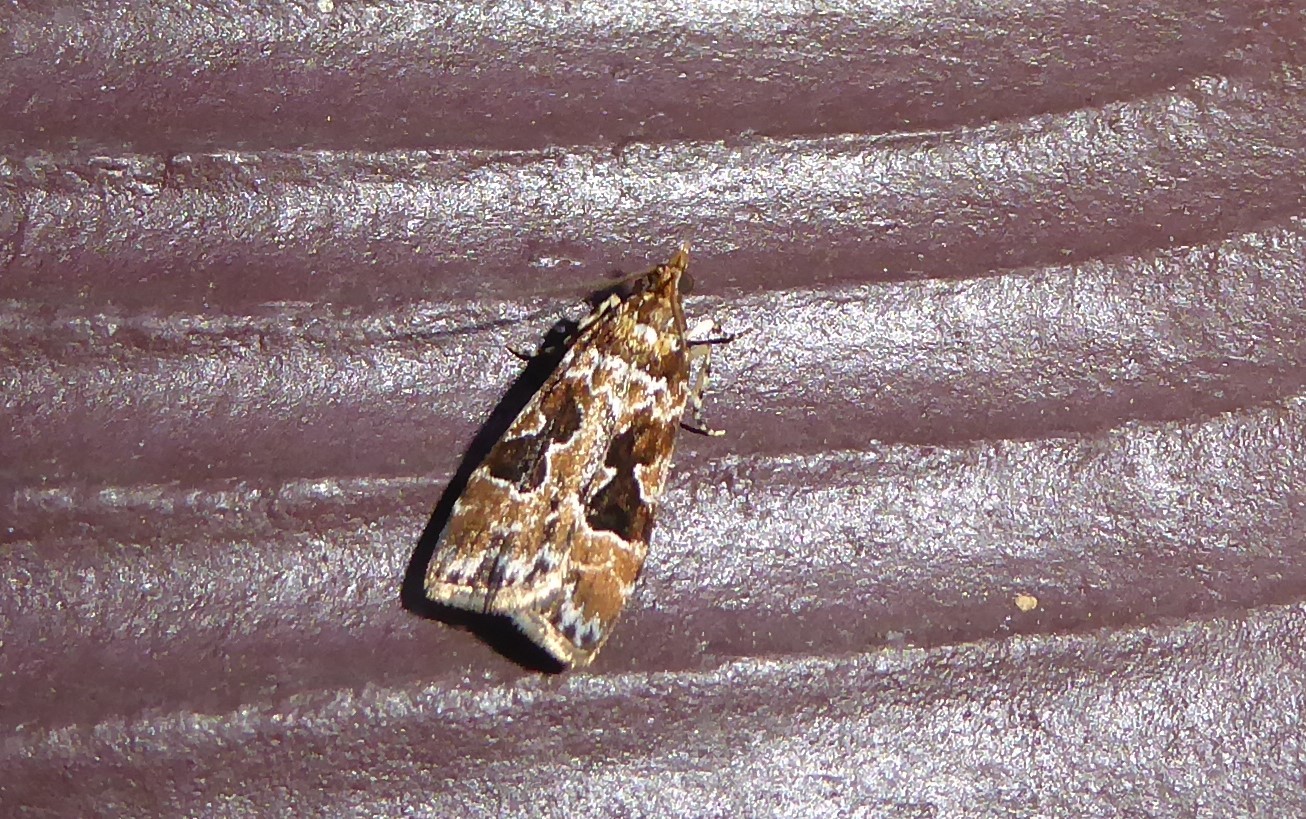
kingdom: Animalia
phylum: Arthropoda
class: Insecta
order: Lepidoptera
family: Crambidae
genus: Scoparia
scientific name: Scoparia ustimacula
